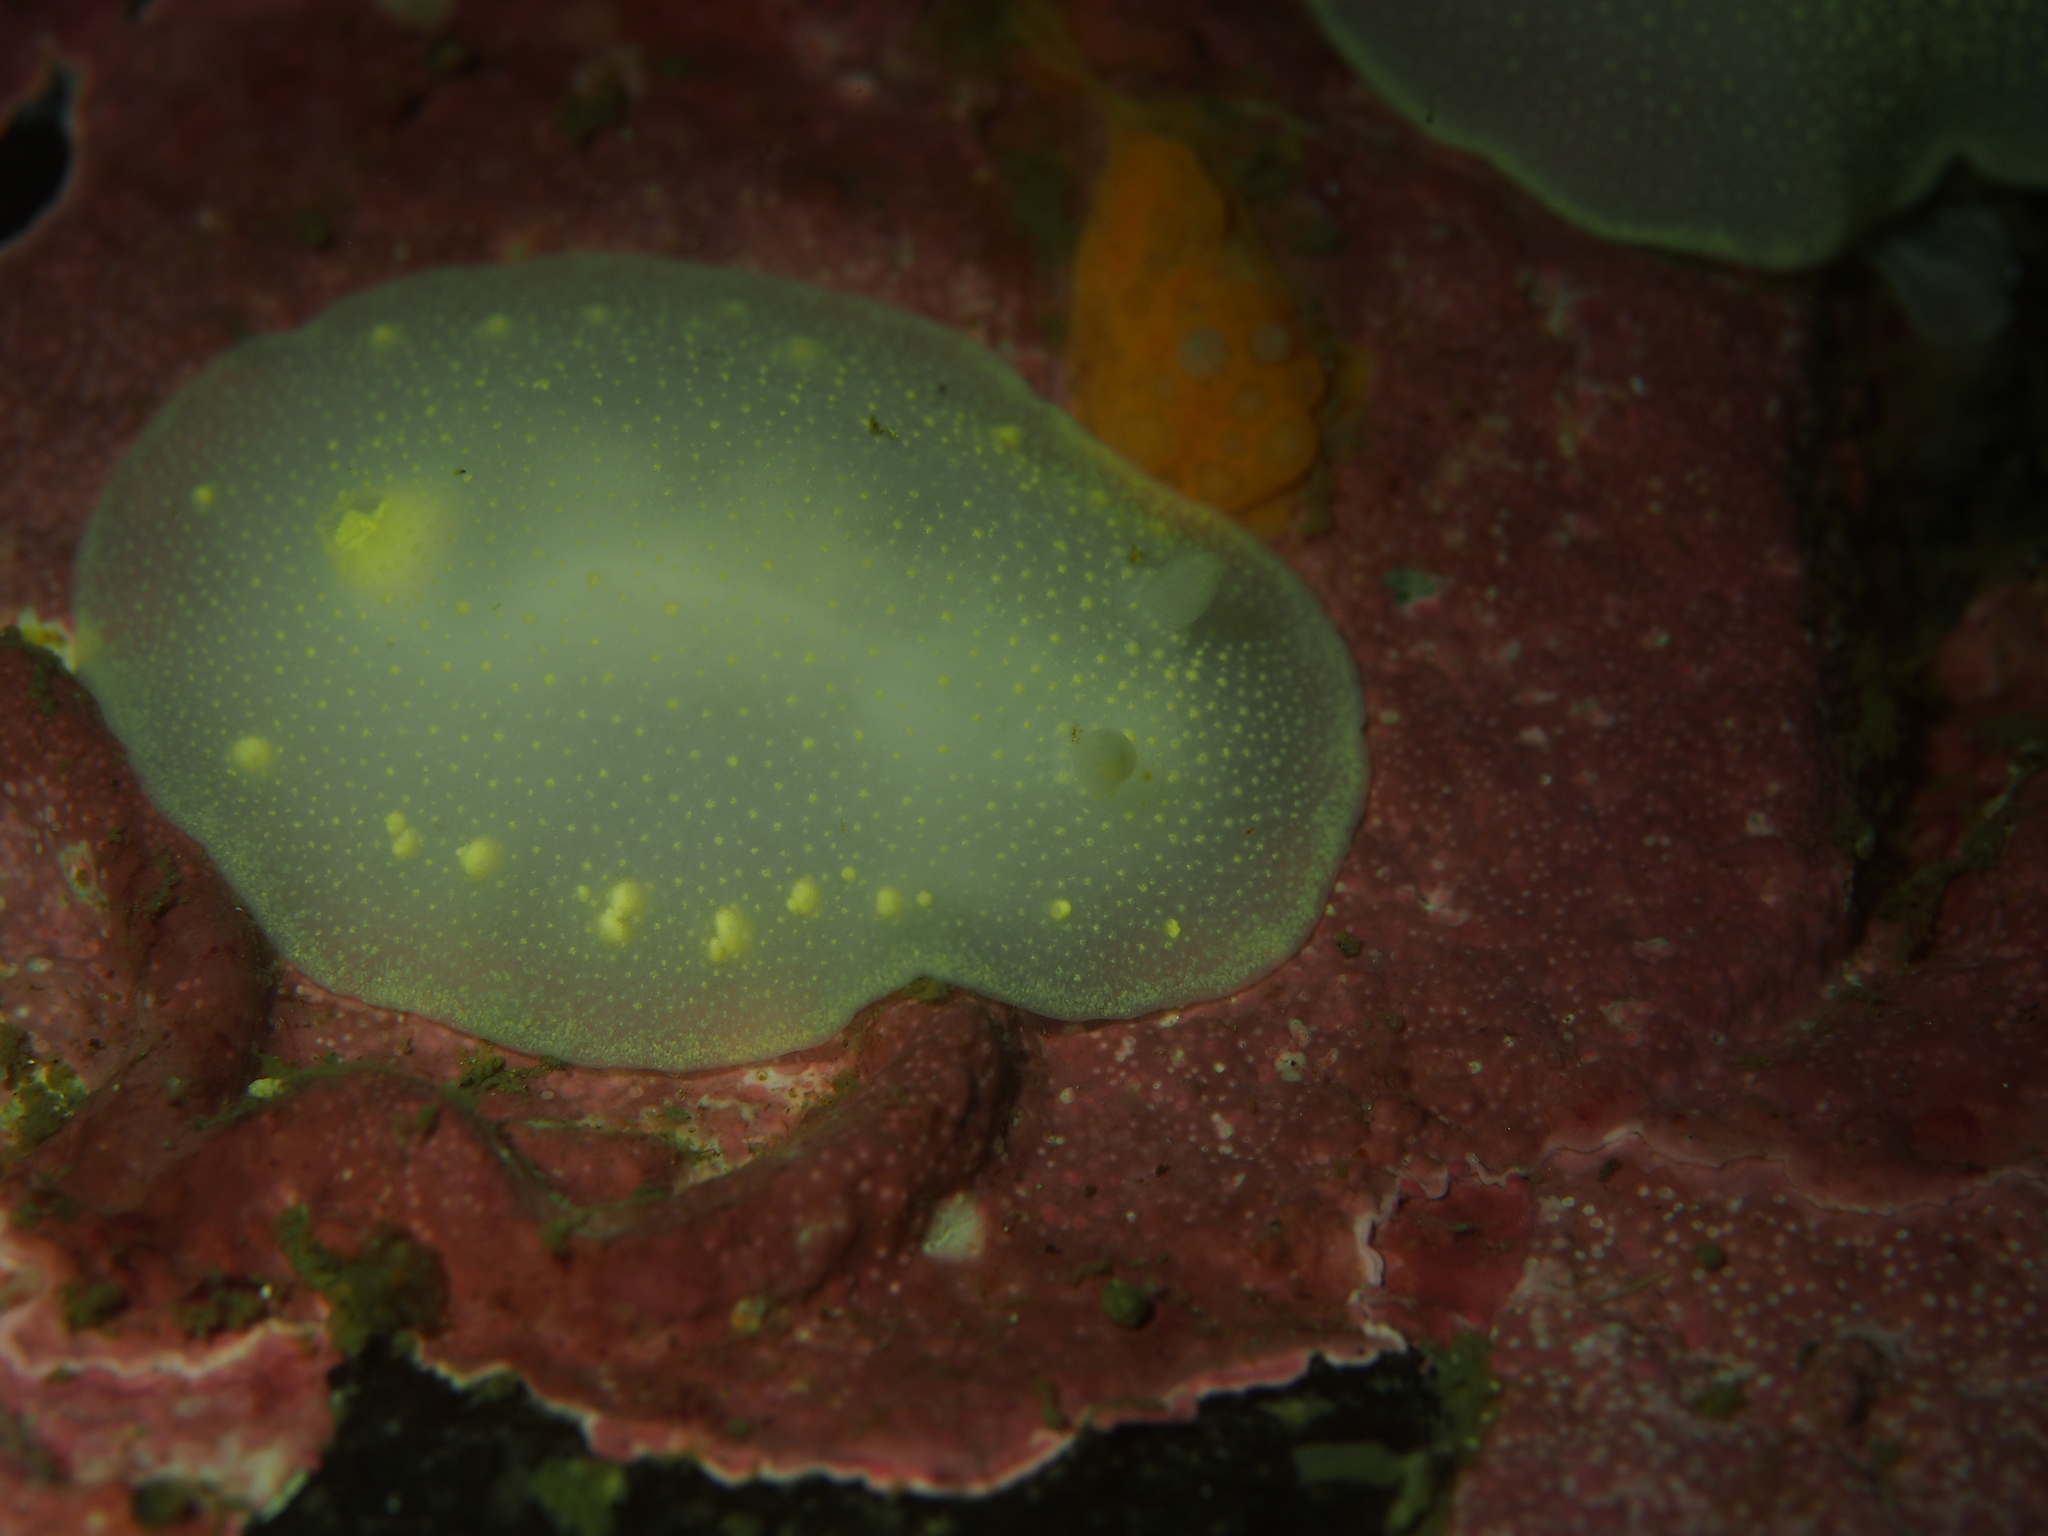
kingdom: Animalia
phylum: Mollusca
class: Gastropoda
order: Nudibranchia
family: Cadlinidae
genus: Cadlina
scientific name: Cadlina laevis
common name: White atlantic cadlina
